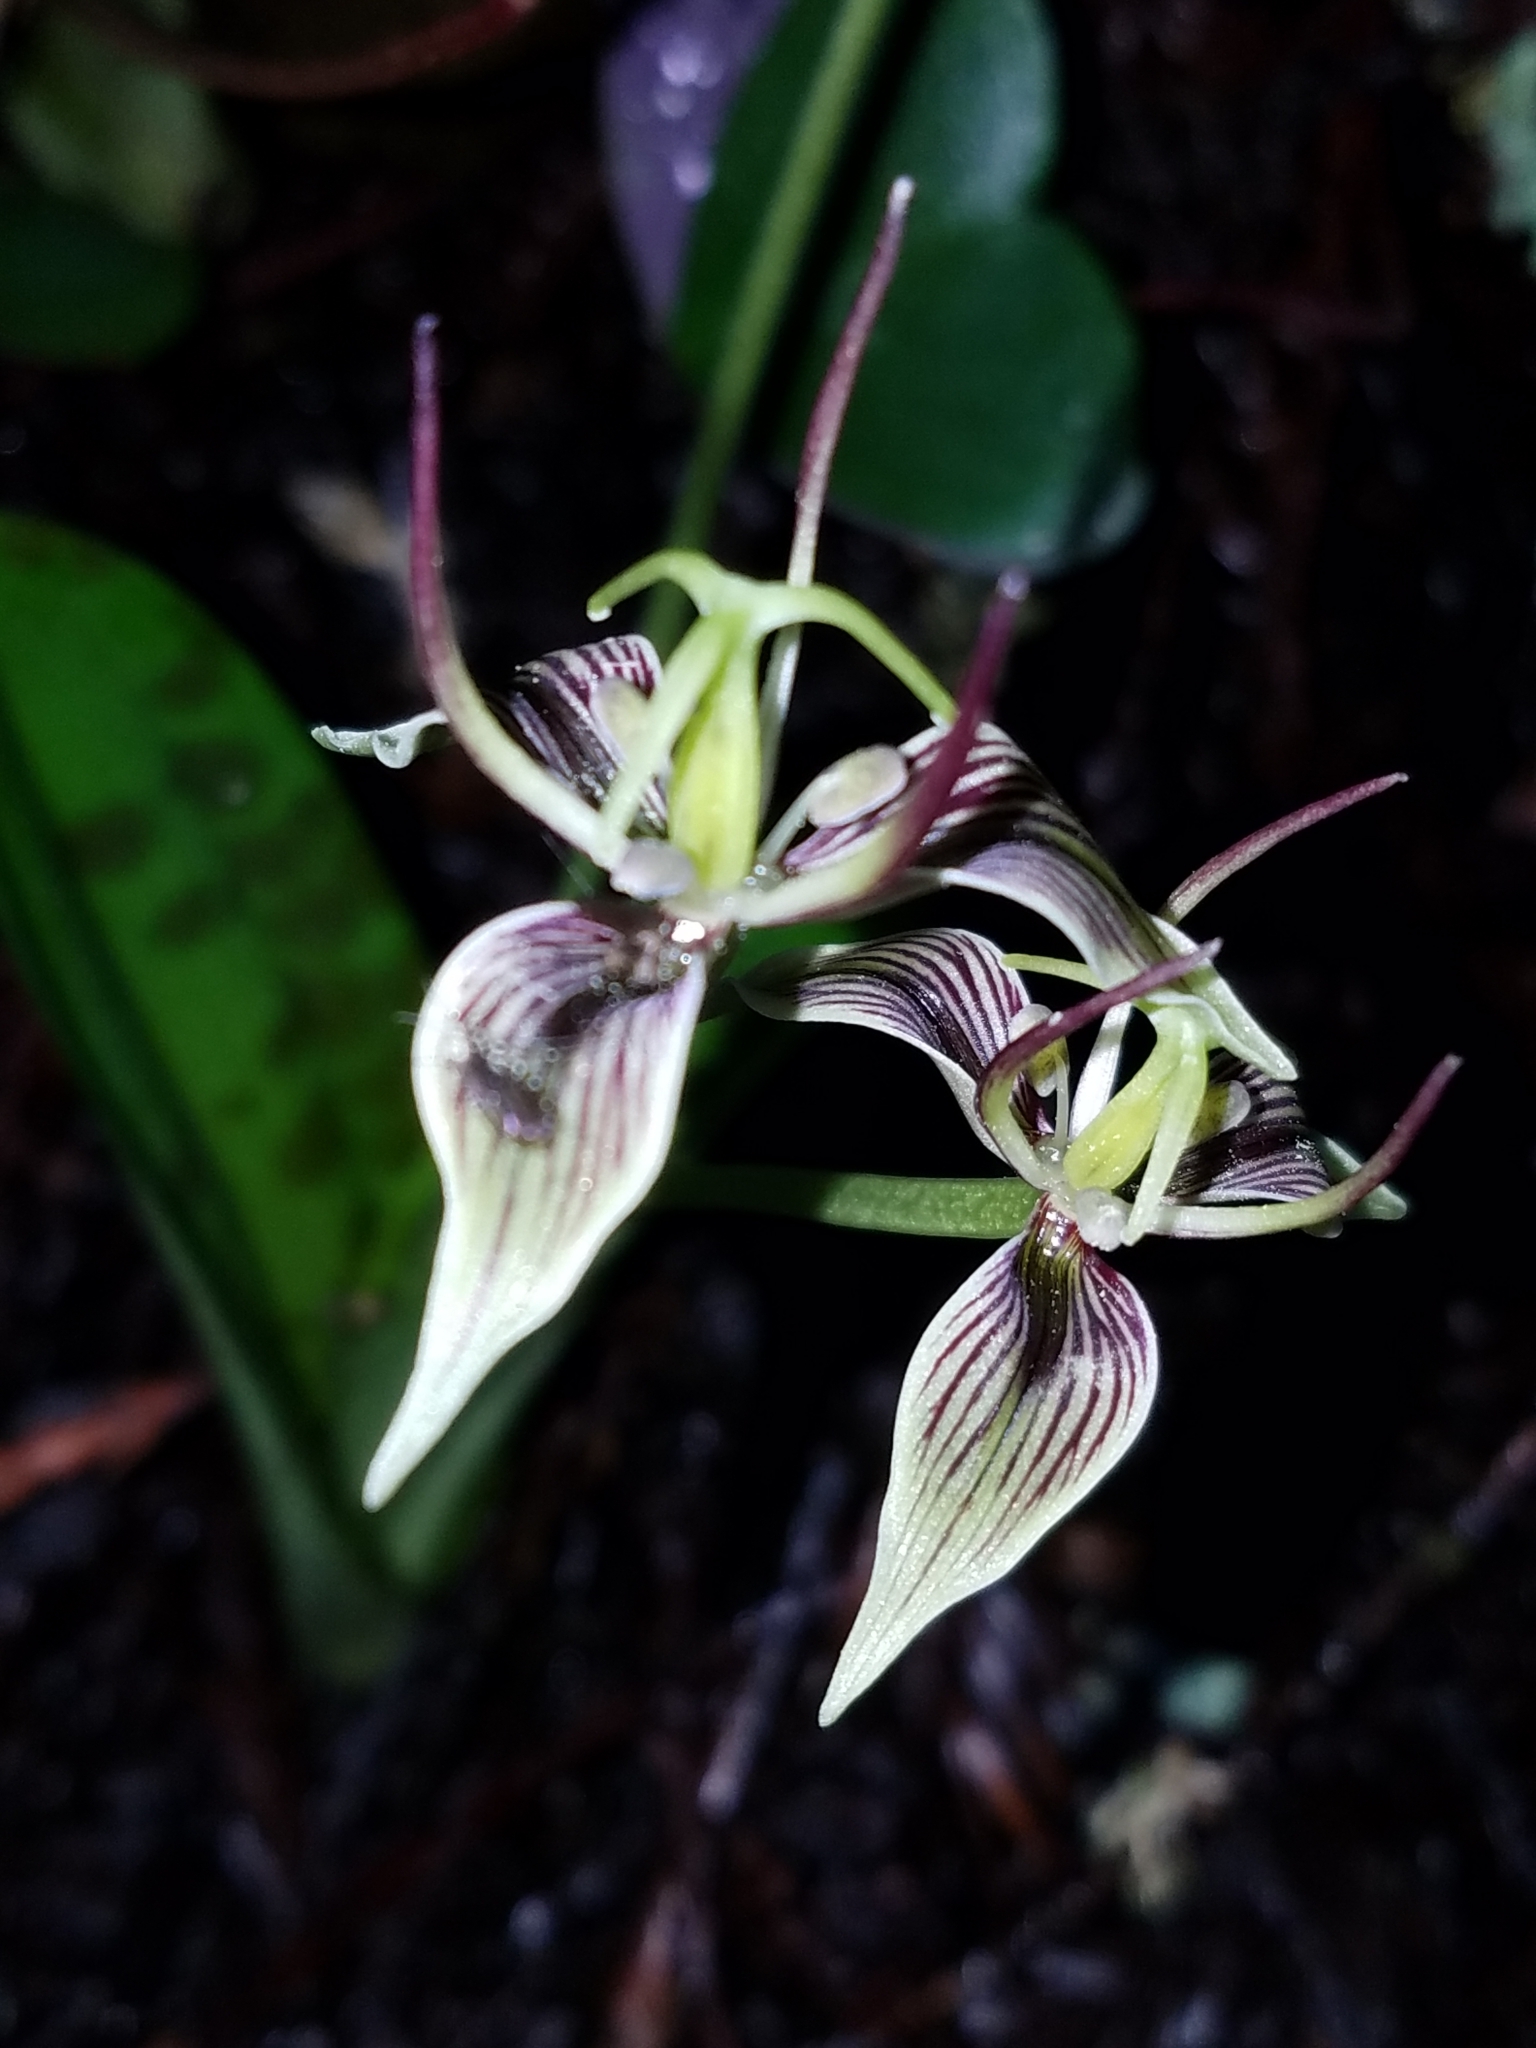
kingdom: Plantae
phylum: Tracheophyta
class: Liliopsida
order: Liliales
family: Liliaceae
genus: Scoliopus
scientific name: Scoliopus bigelovii
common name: Foetid adder's-tongue
